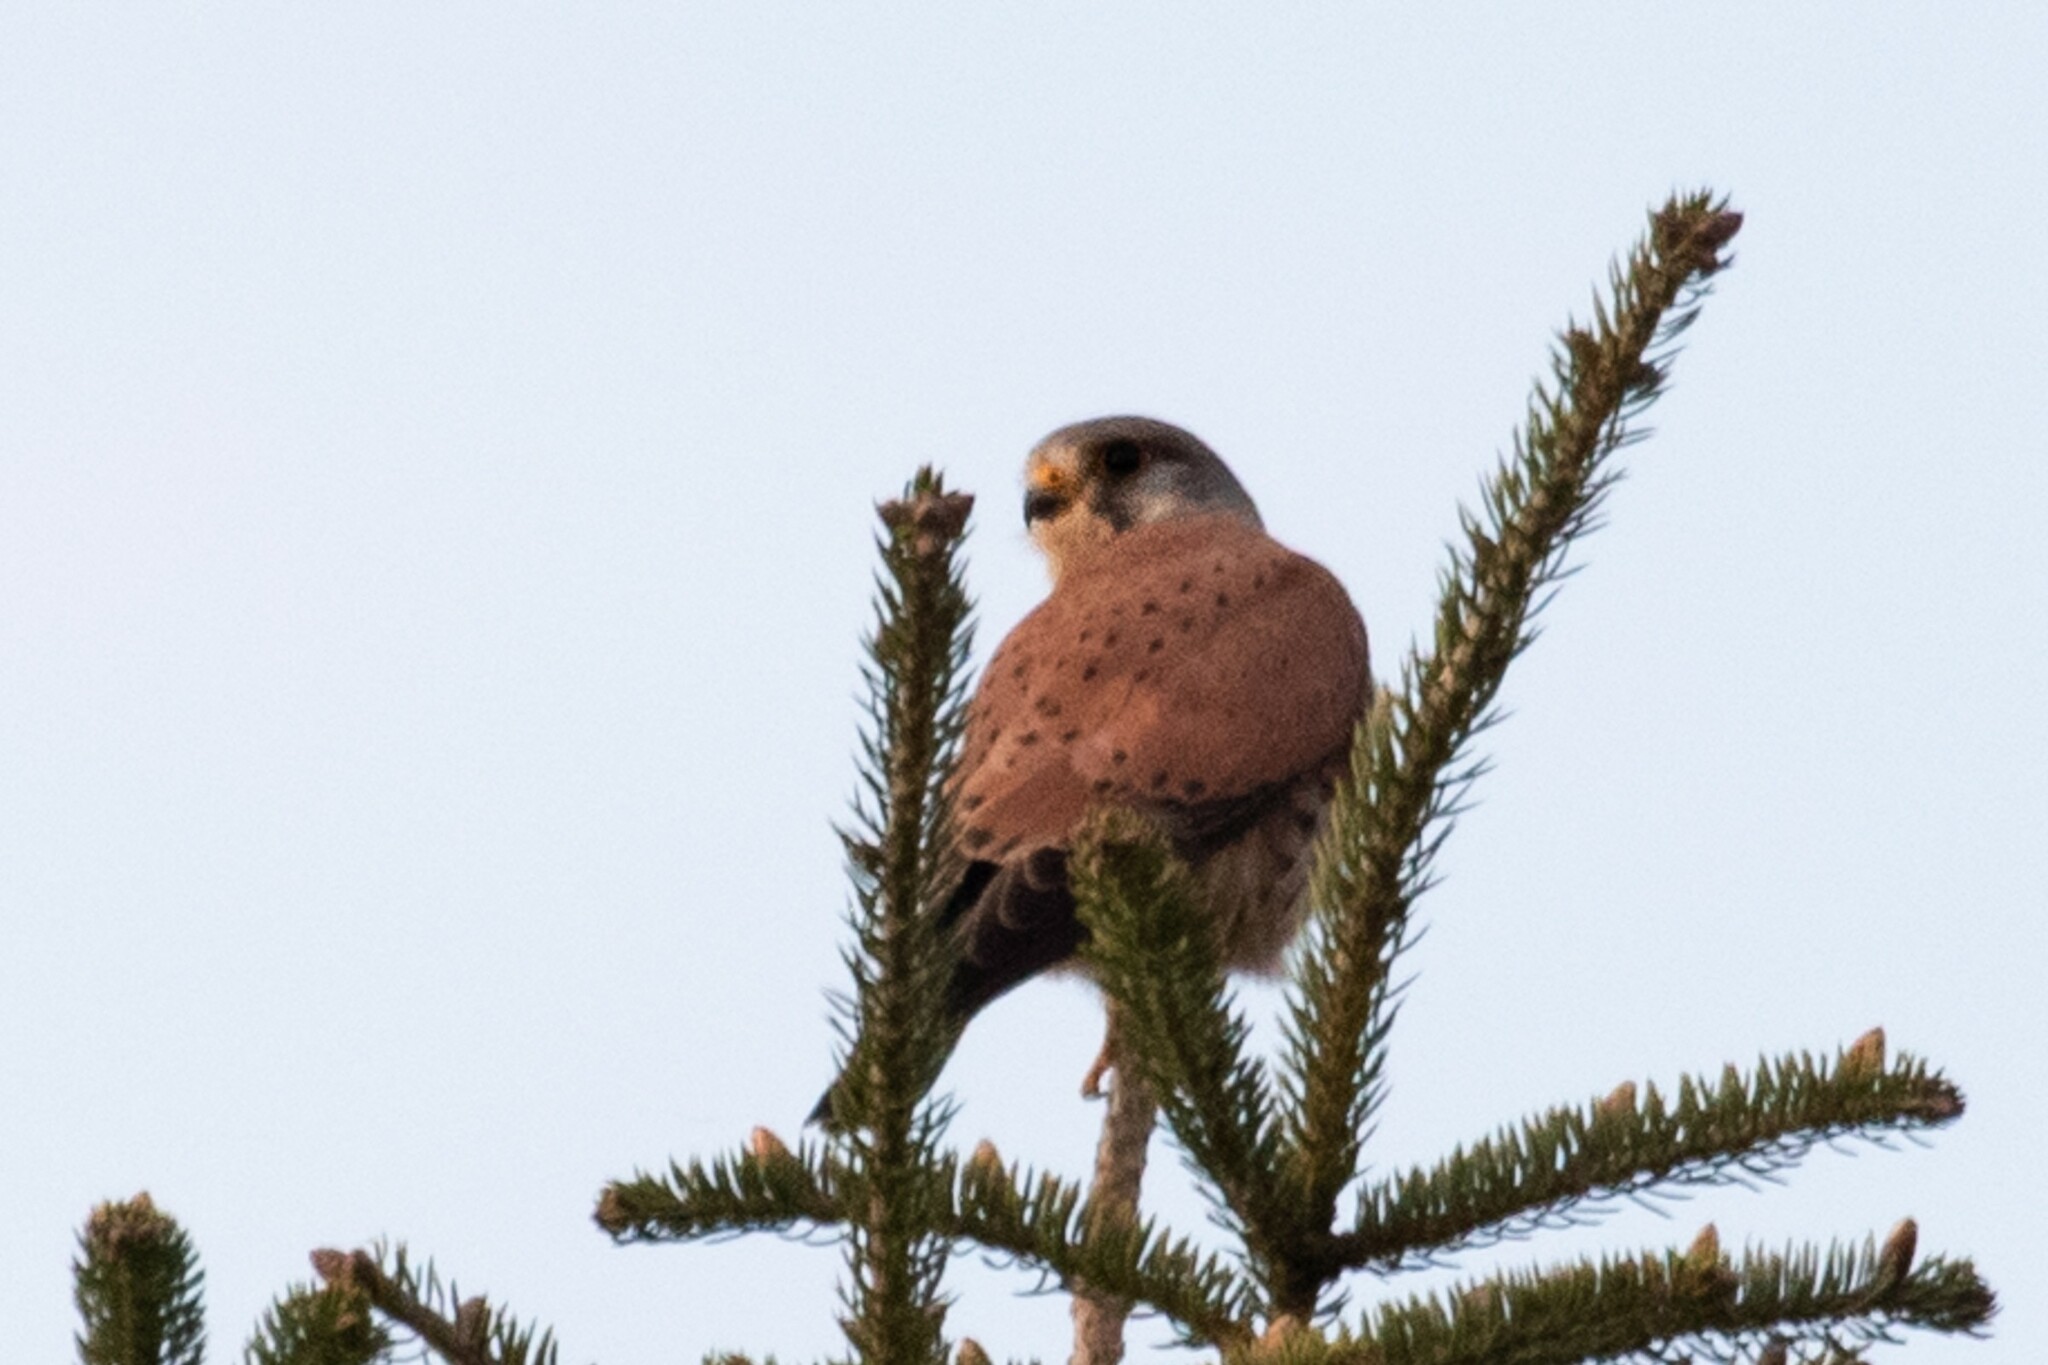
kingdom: Animalia
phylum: Chordata
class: Aves
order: Falconiformes
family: Falconidae
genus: Falco
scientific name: Falco tinnunculus
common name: Common kestrel
